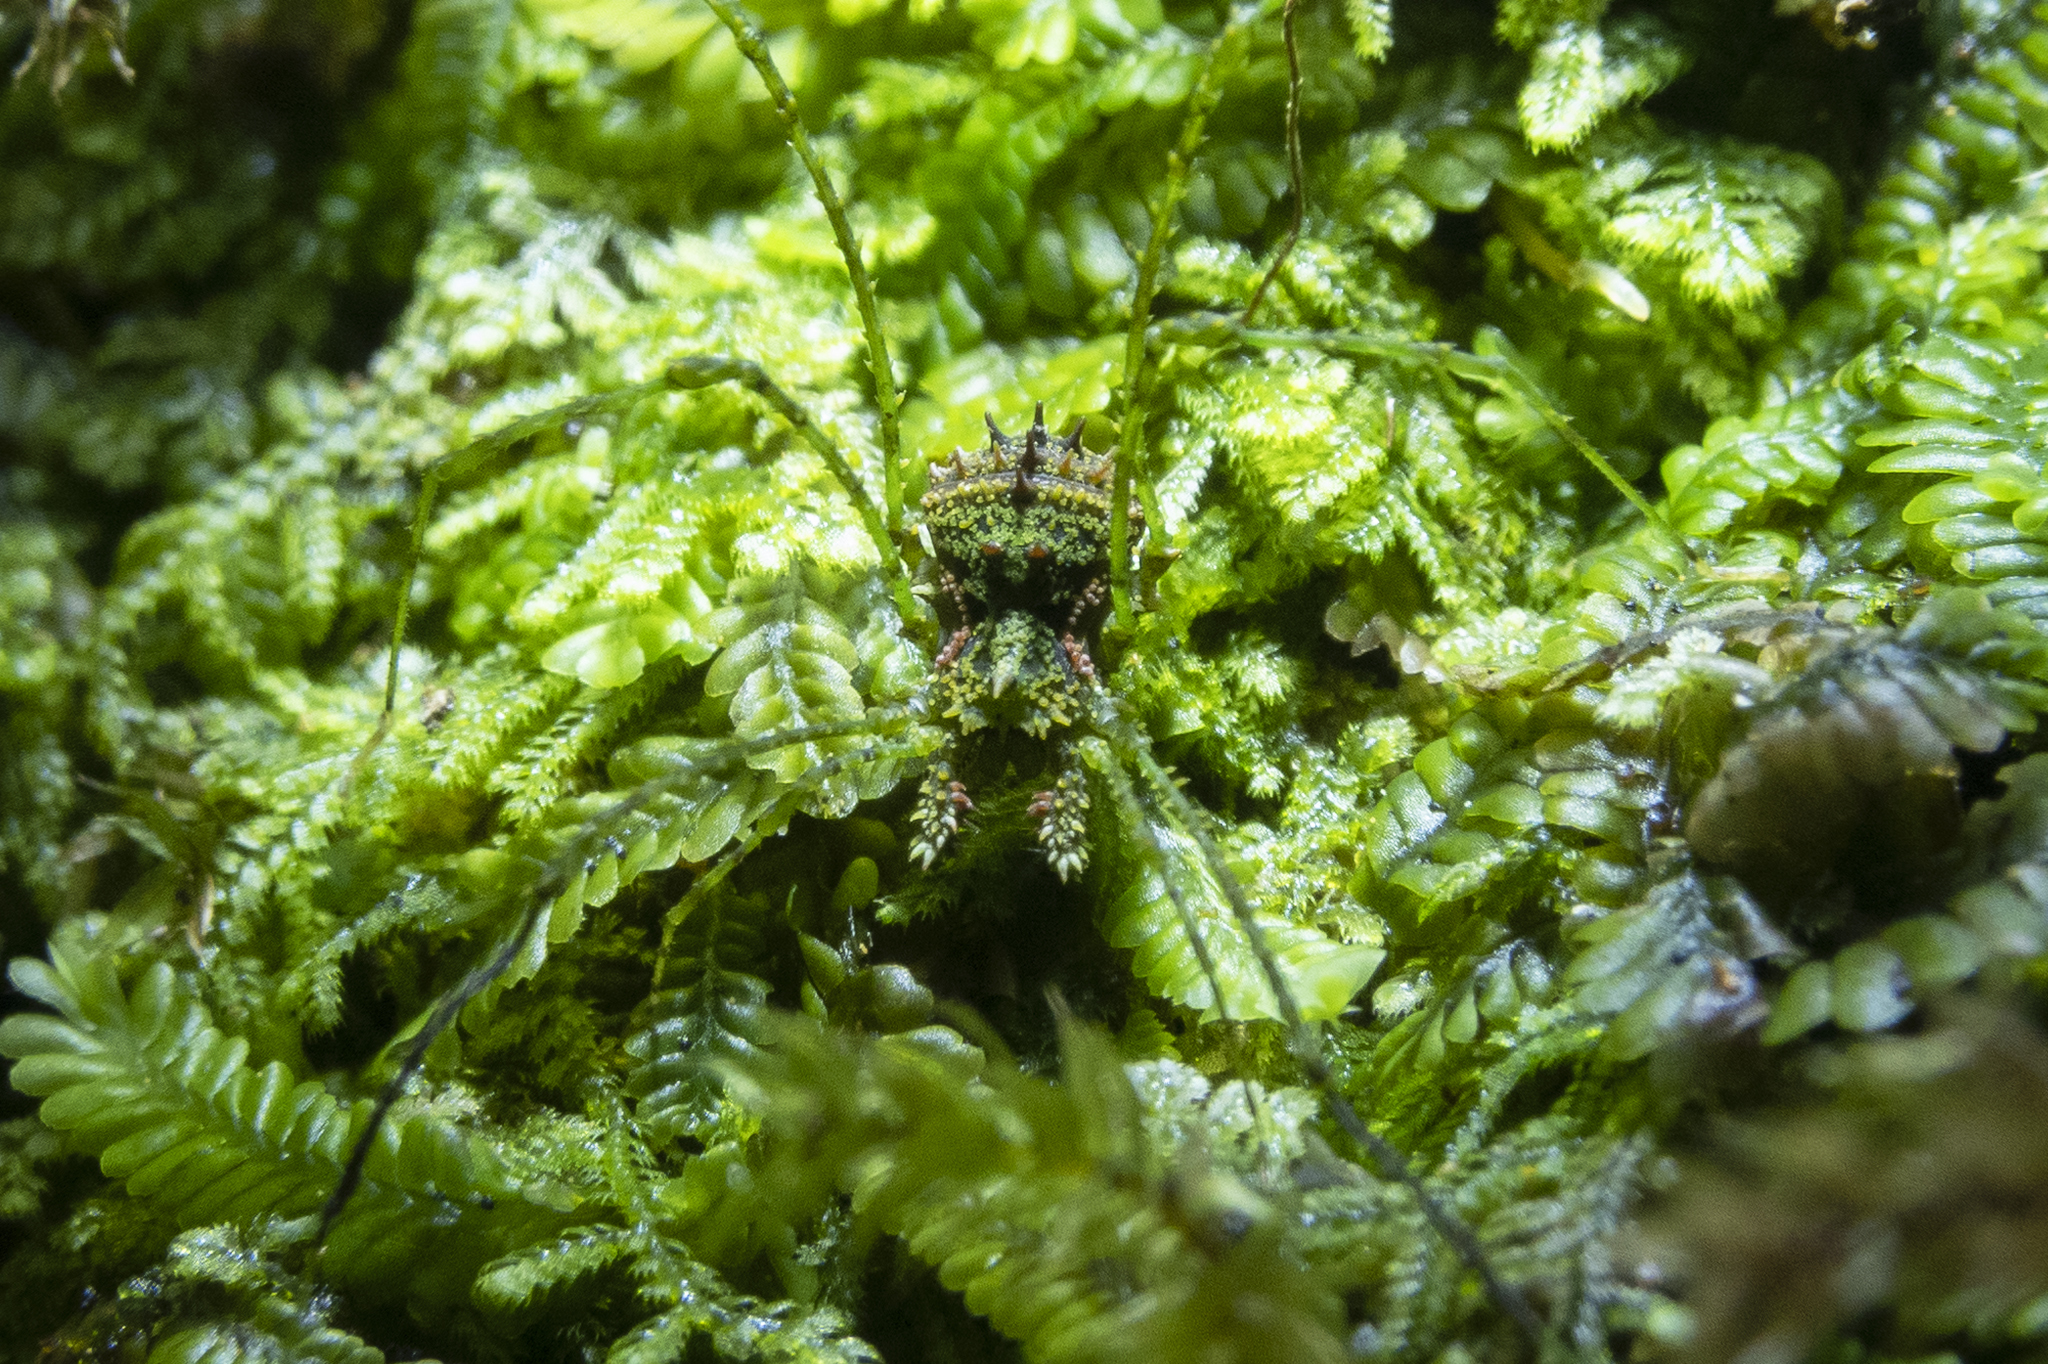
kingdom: Animalia
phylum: Arthropoda
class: Arachnida
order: Opiliones
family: Triaenonychidae
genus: Algidia
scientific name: Algidia viridata
